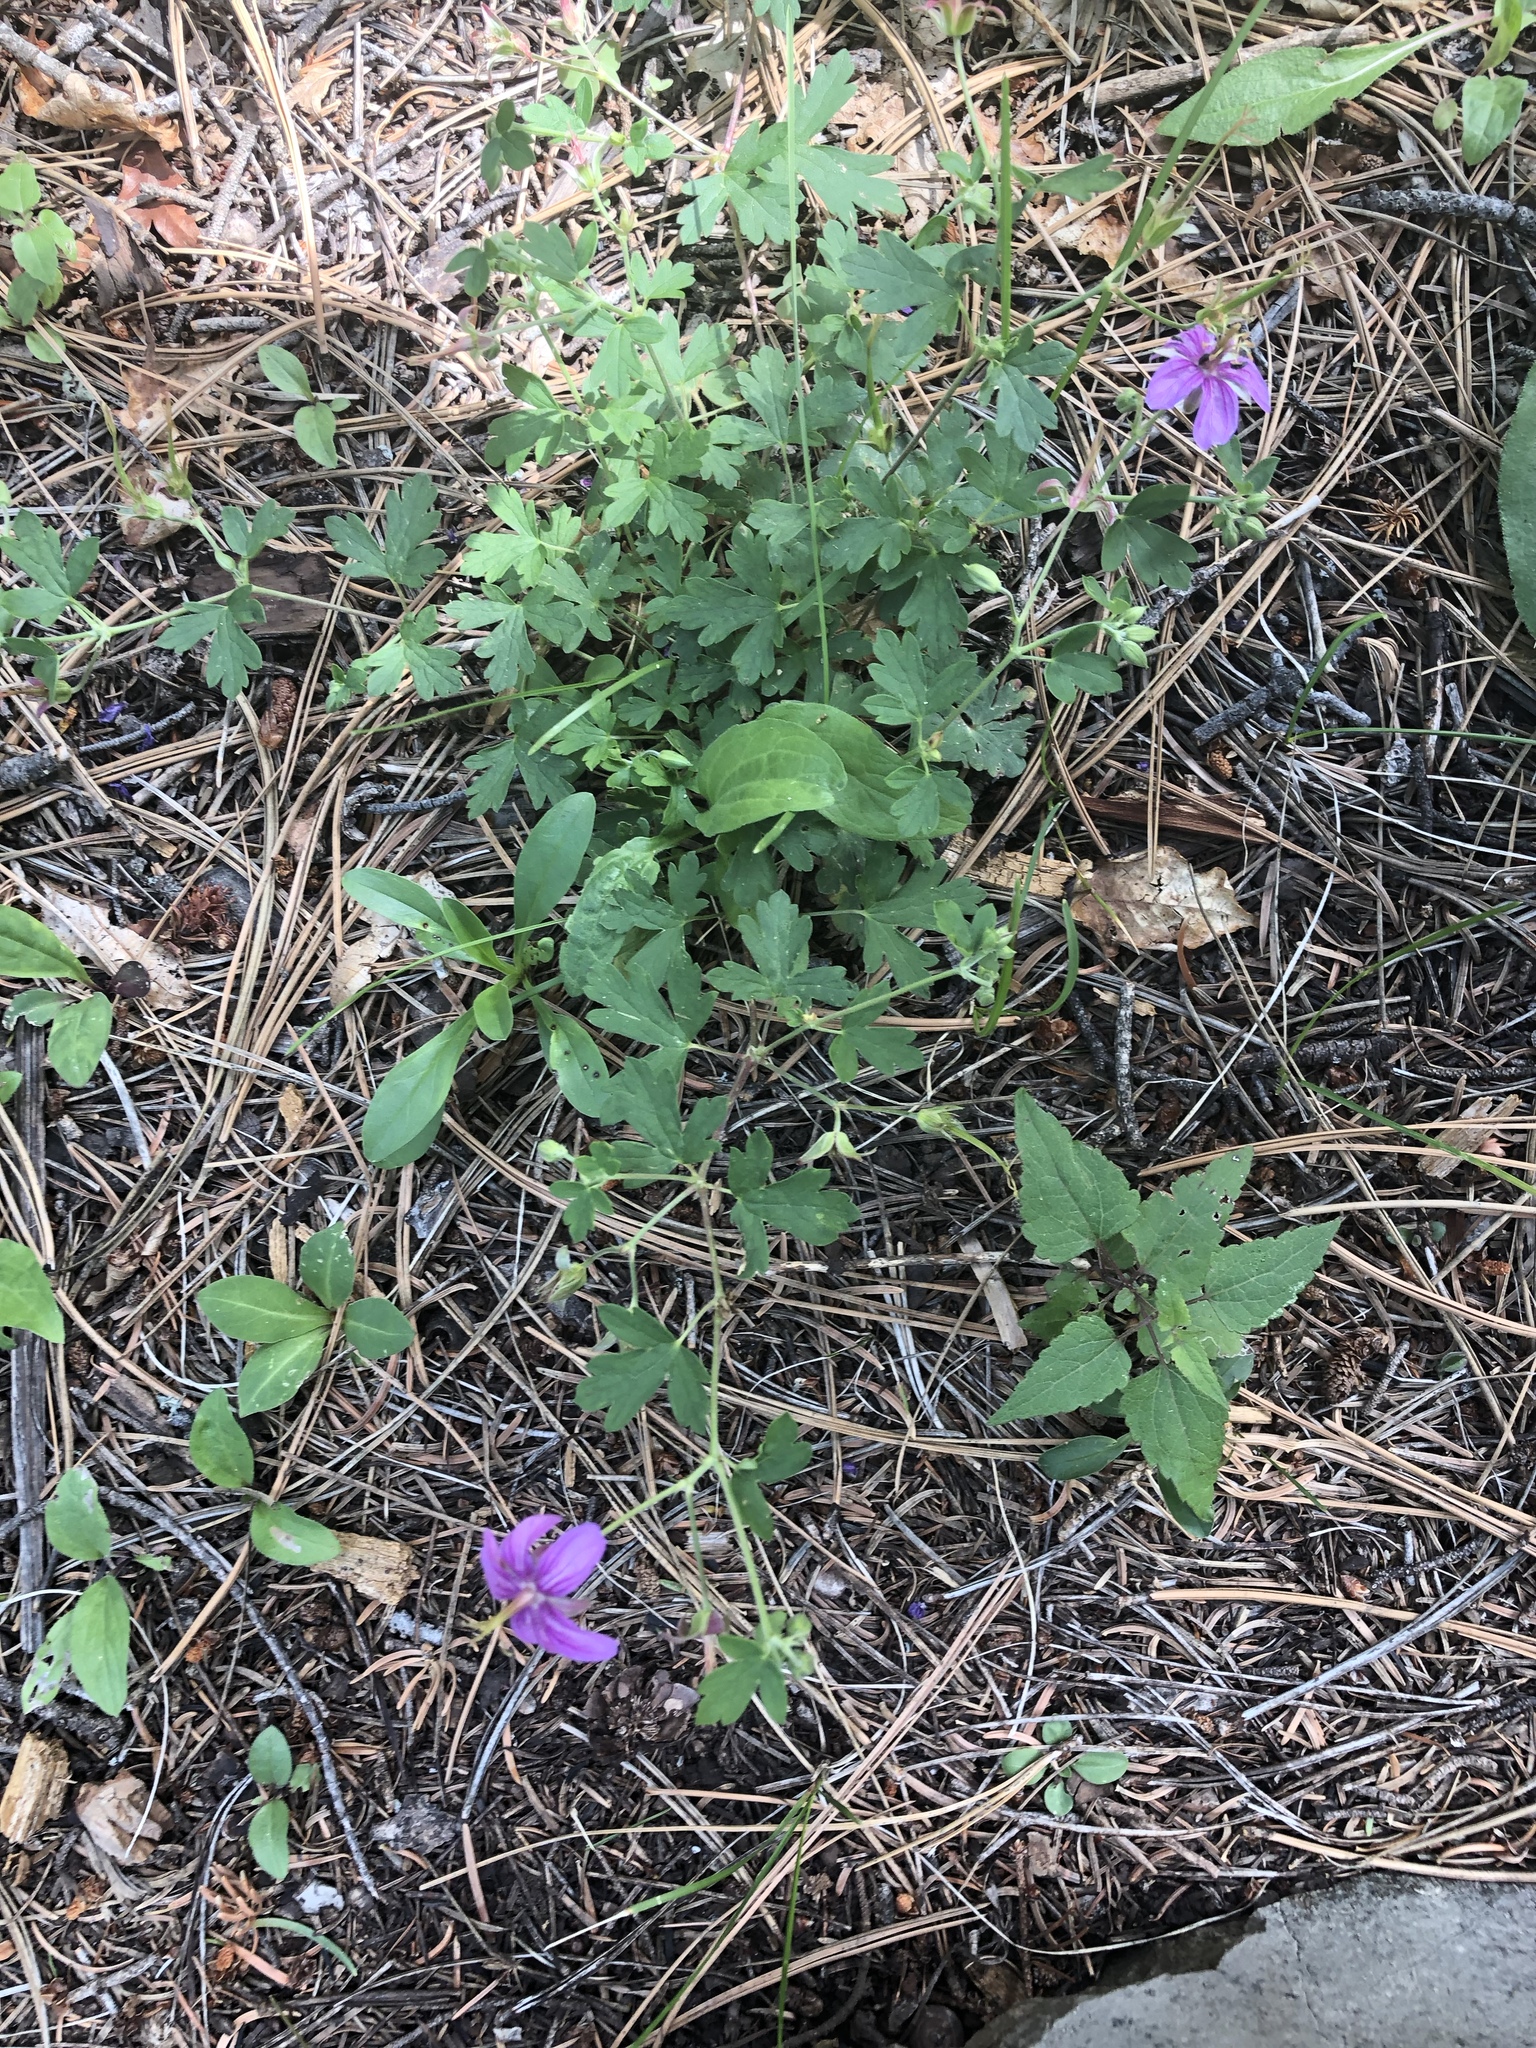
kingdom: Plantae
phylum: Tracheophyta
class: Magnoliopsida
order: Geraniales
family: Geraniaceae
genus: Geranium
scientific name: Geranium caespitosum
